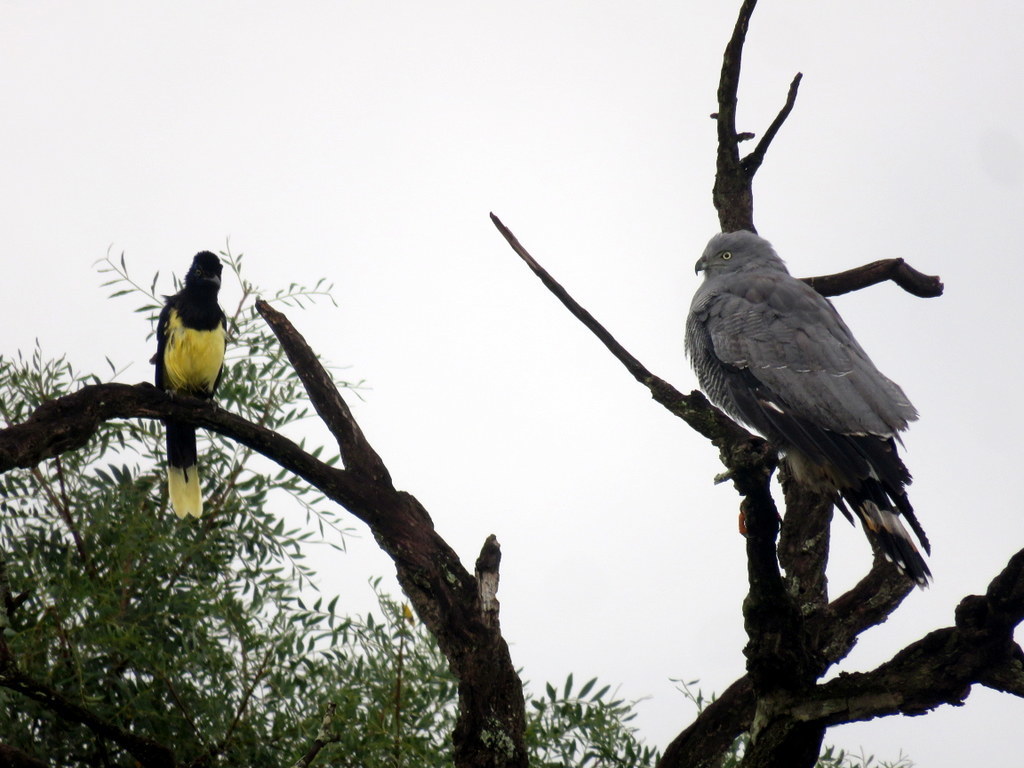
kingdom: Animalia
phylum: Chordata
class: Aves
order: Accipitriformes
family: Accipitridae
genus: Geranospiza
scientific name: Geranospiza caerulescens
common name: Crane hawk
